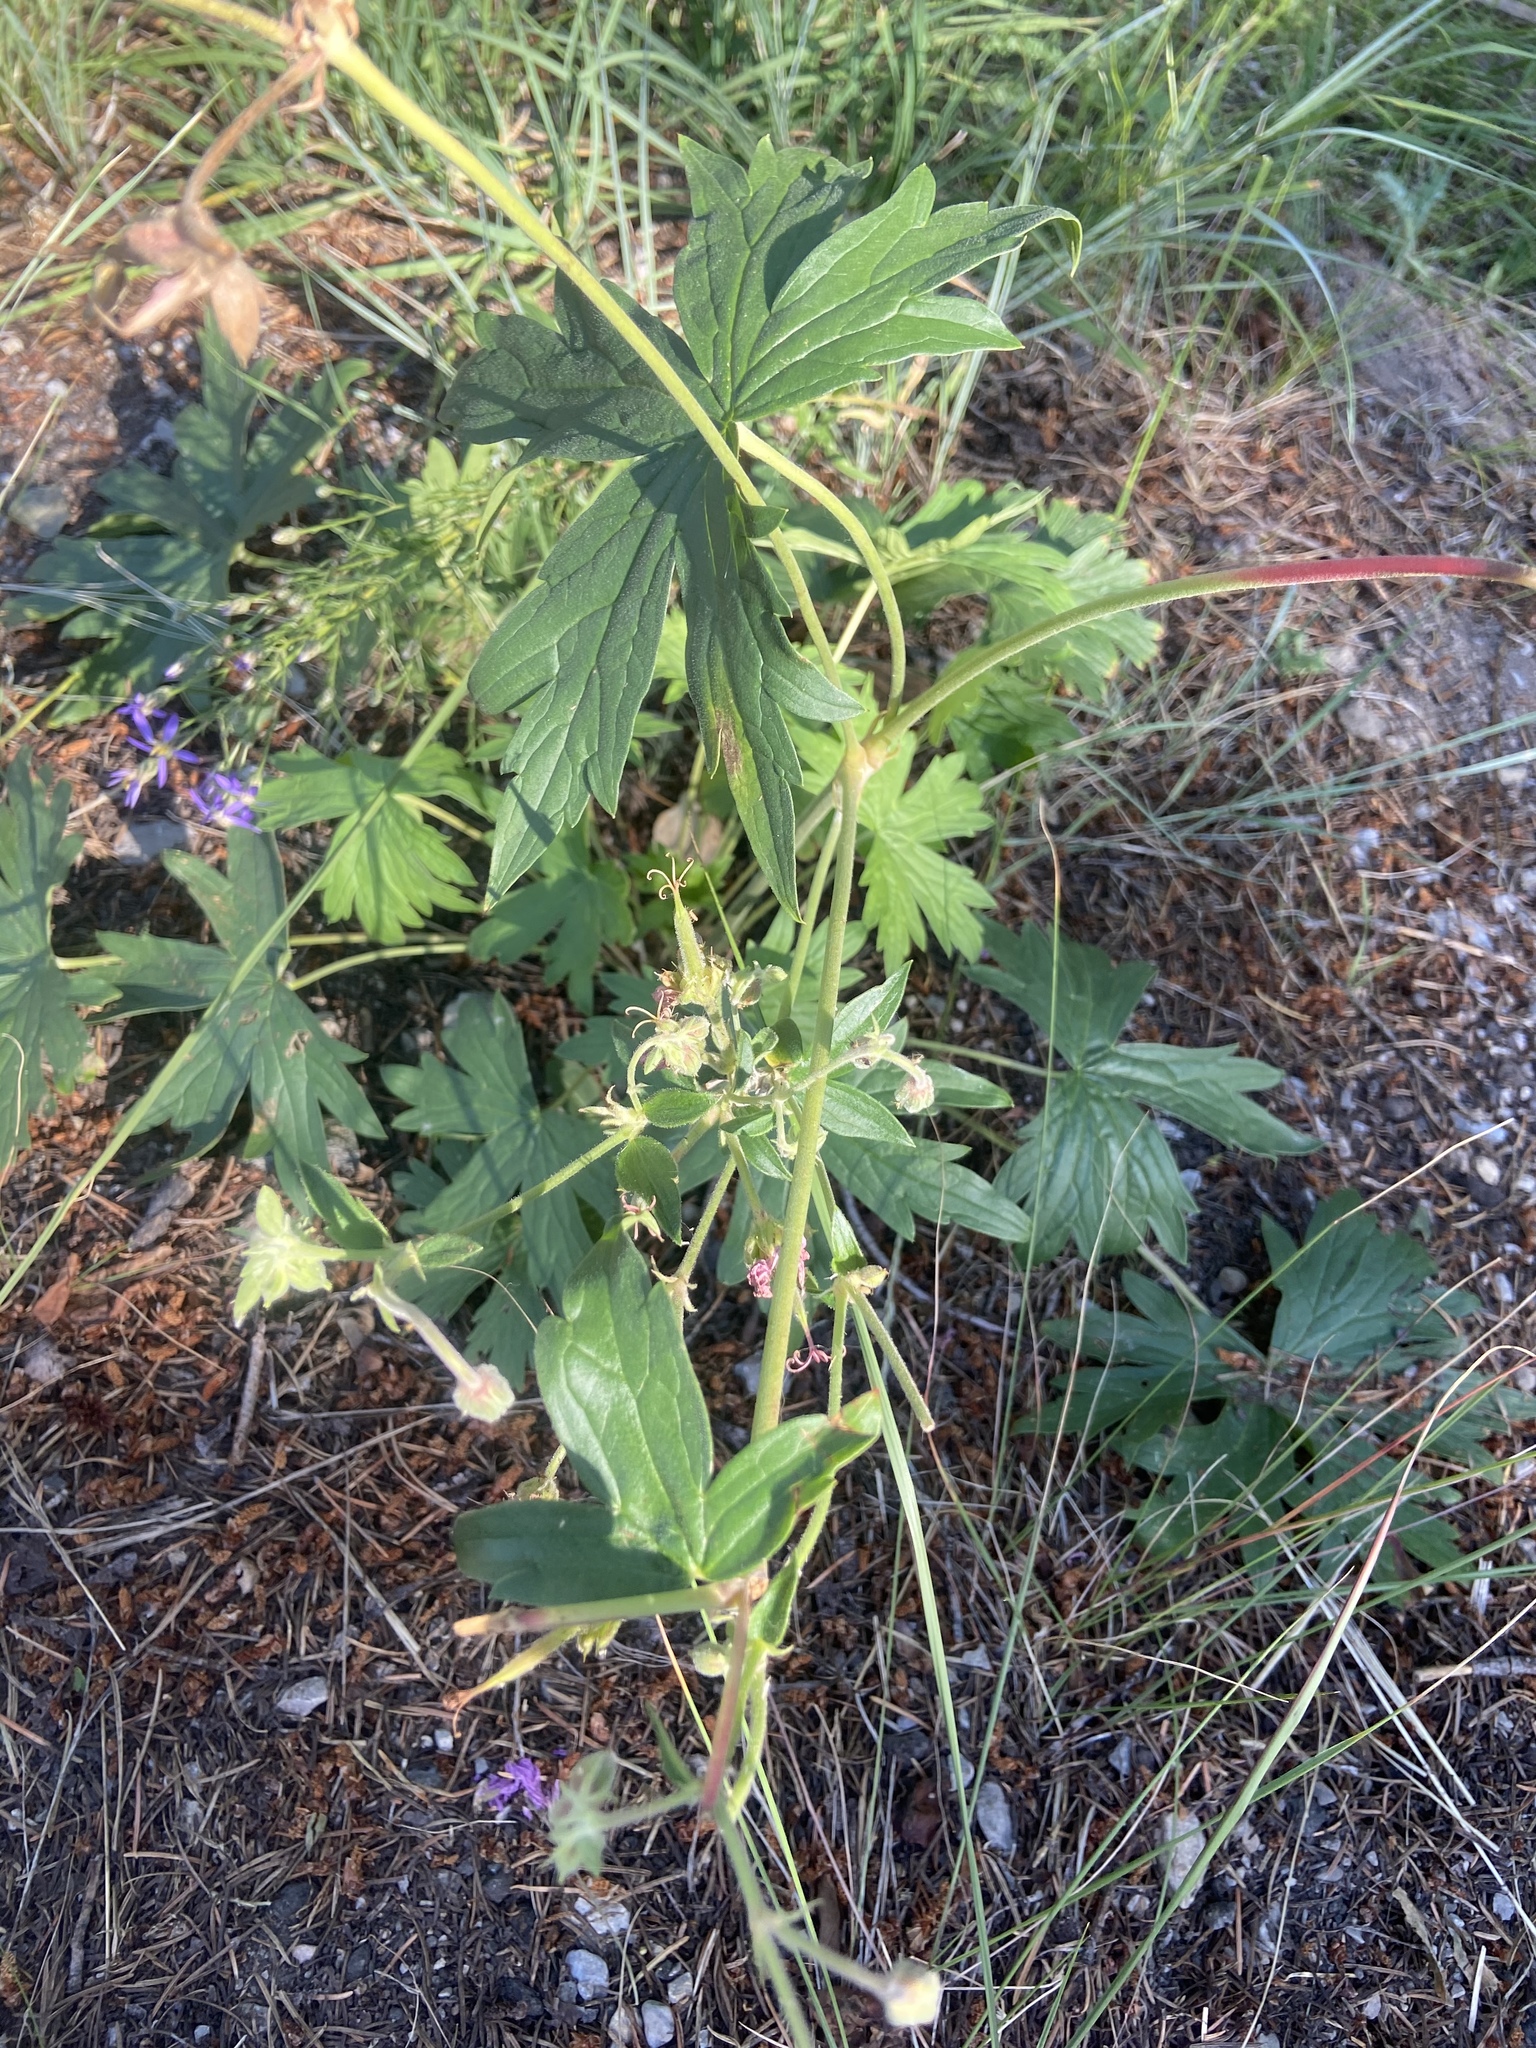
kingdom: Plantae
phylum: Tracheophyta
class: Magnoliopsida
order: Geraniales
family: Geraniaceae
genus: Geranium
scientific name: Geranium viscosissimum
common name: Purple geranium
